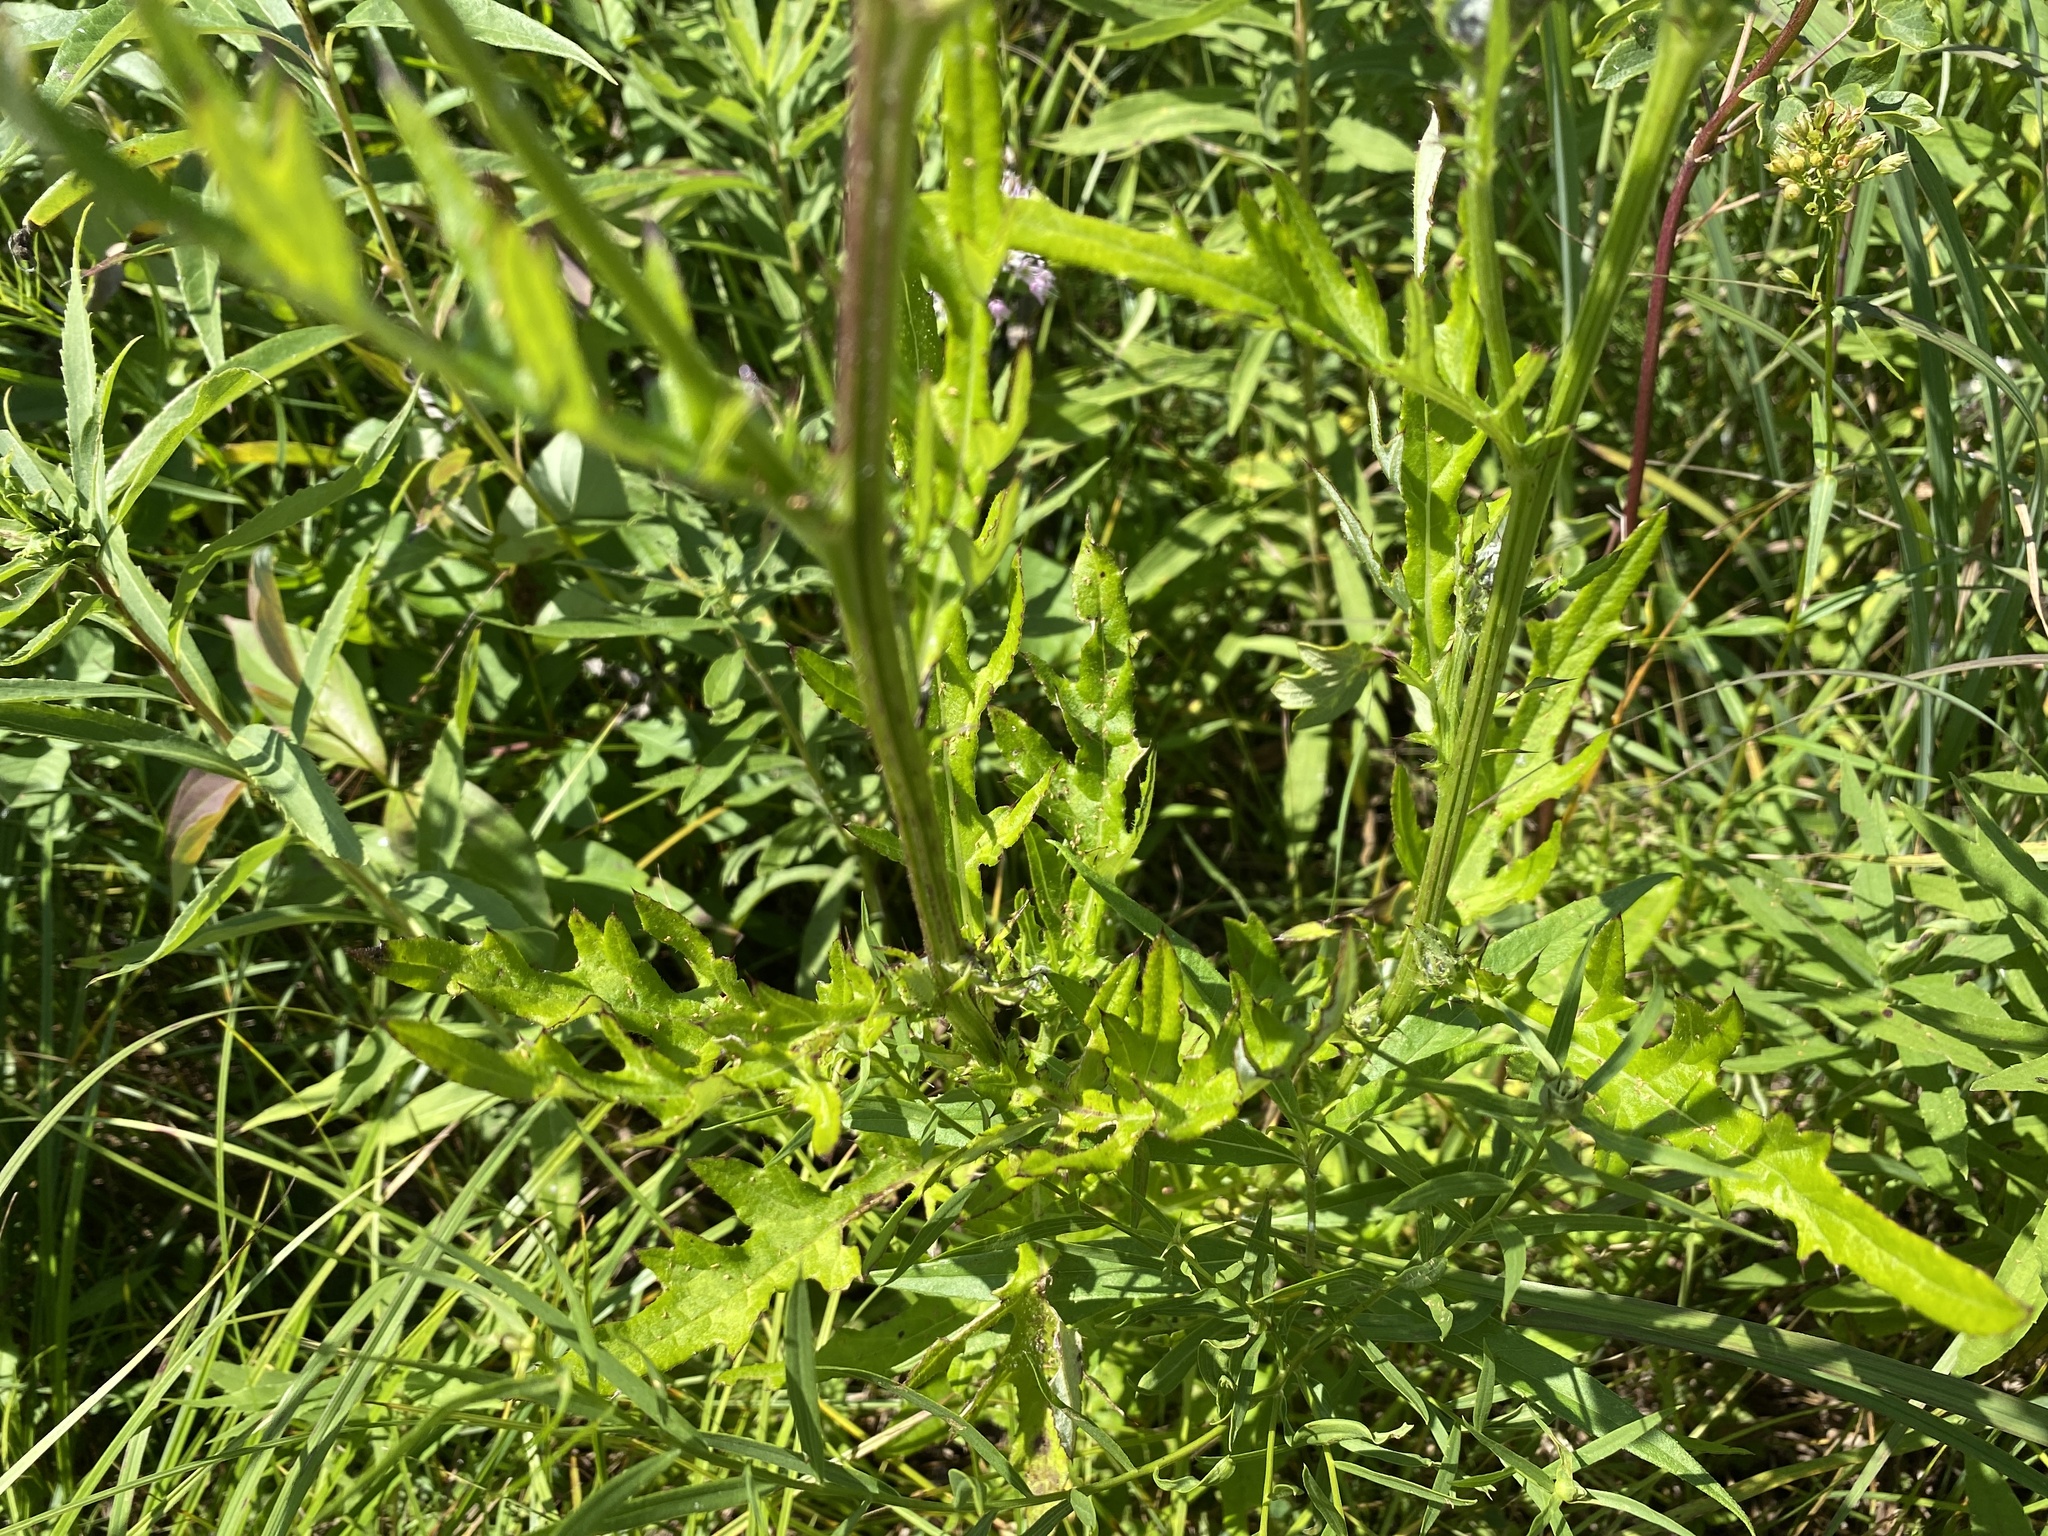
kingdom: Plantae
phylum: Tracheophyta
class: Magnoliopsida
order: Asterales
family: Asteraceae
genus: Cirsium
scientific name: Cirsium muticum
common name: Dunce-nettle
